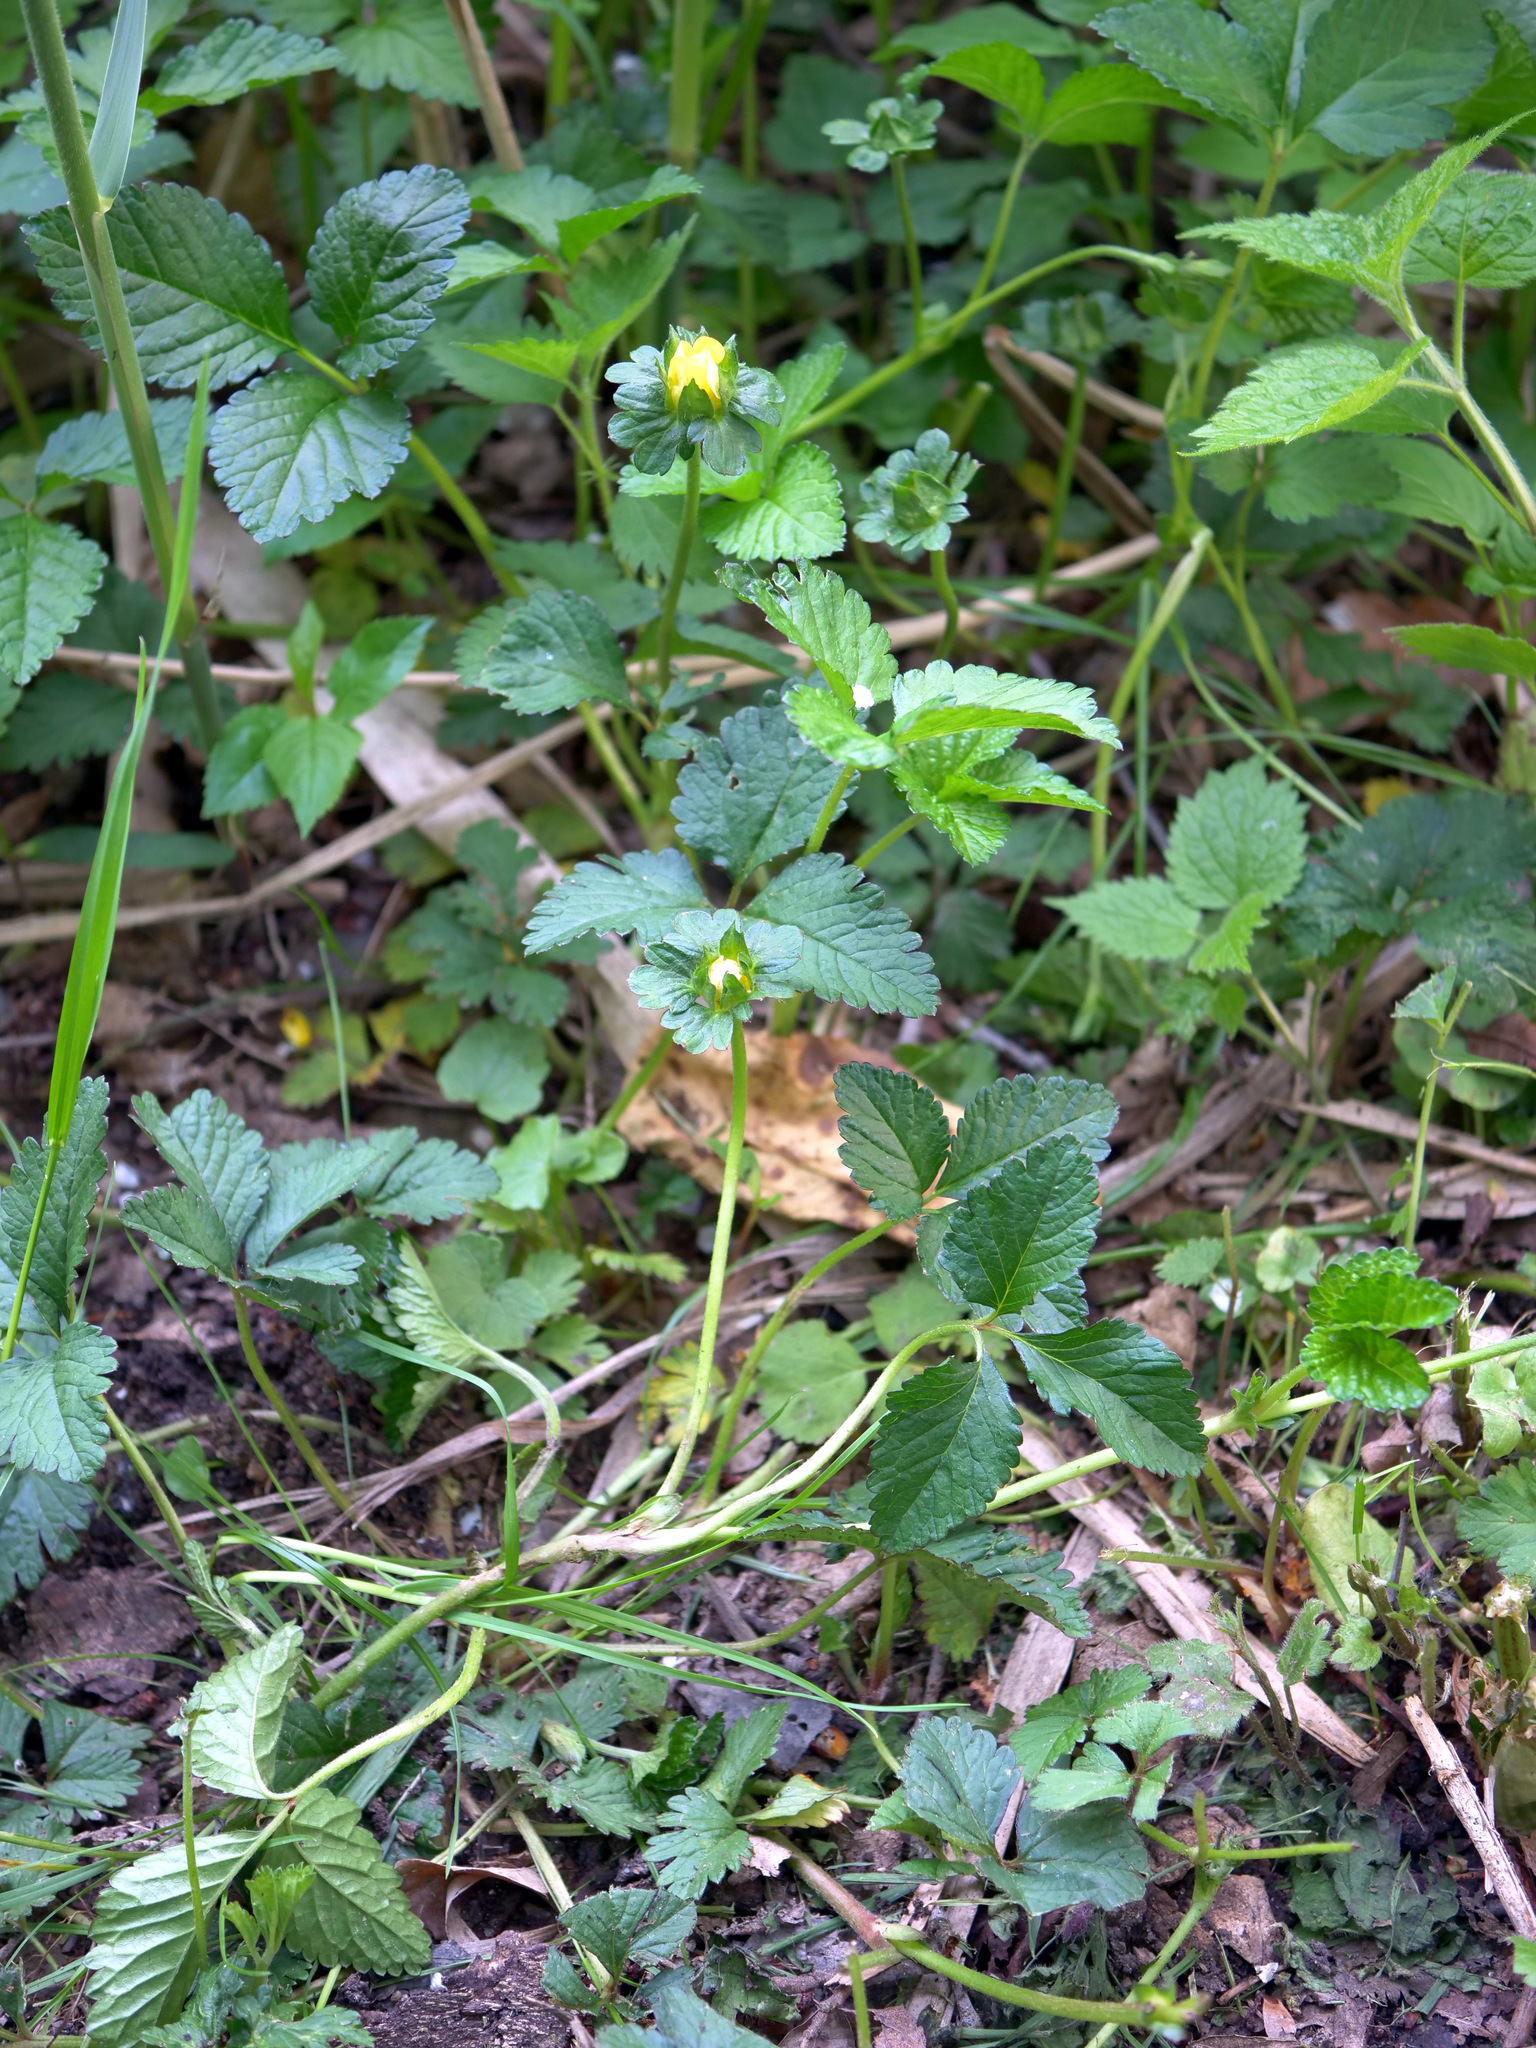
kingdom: Plantae
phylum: Tracheophyta
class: Magnoliopsida
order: Rosales
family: Rosaceae
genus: Potentilla
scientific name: Potentilla indica
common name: Yellow-flowered strawberry
